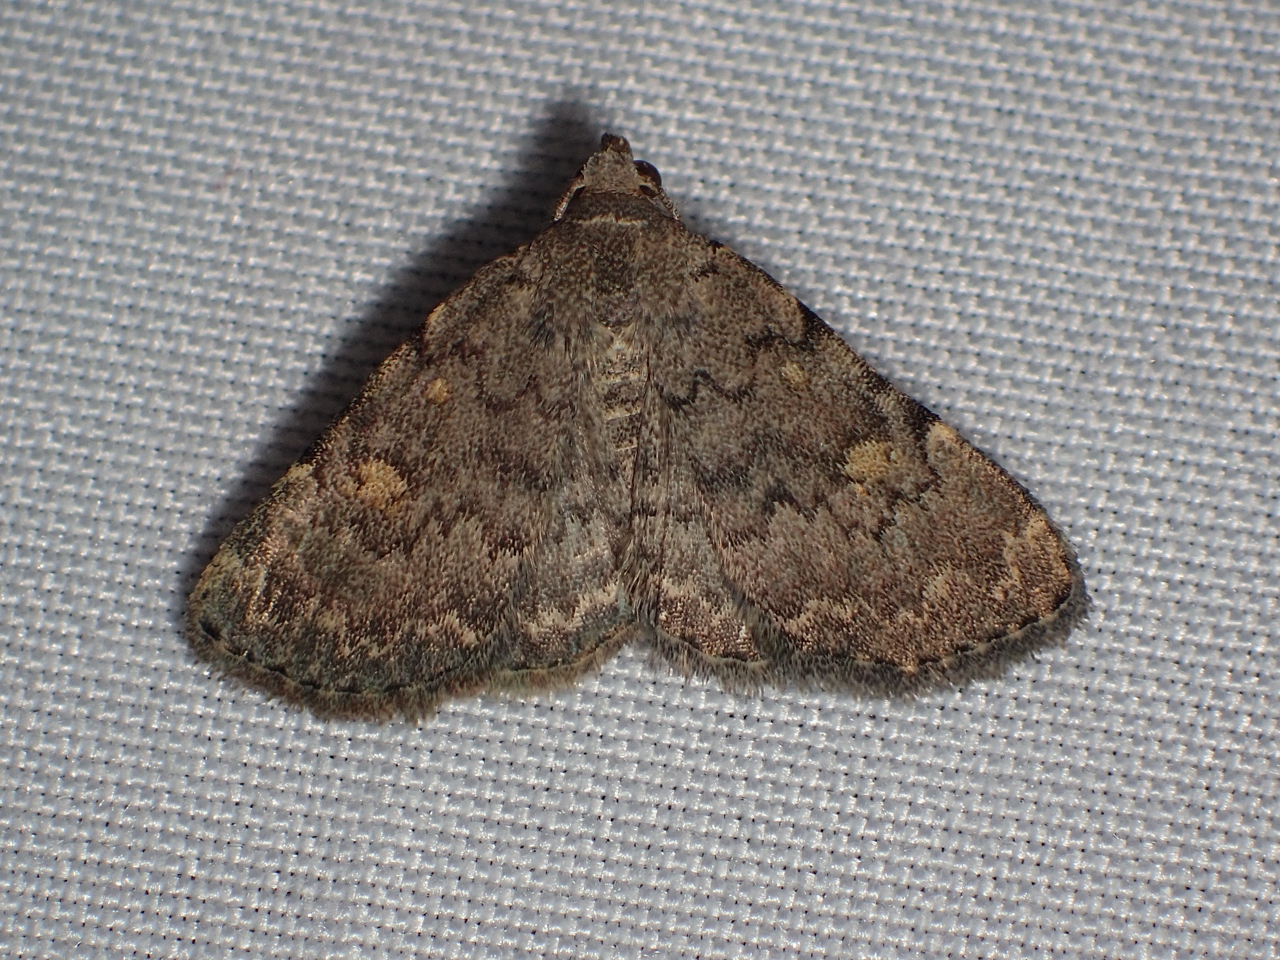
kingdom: Animalia
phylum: Arthropoda
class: Insecta
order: Lepidoptera
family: Erebidae
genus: Idia
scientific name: Idia aemula
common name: Common idia moth
